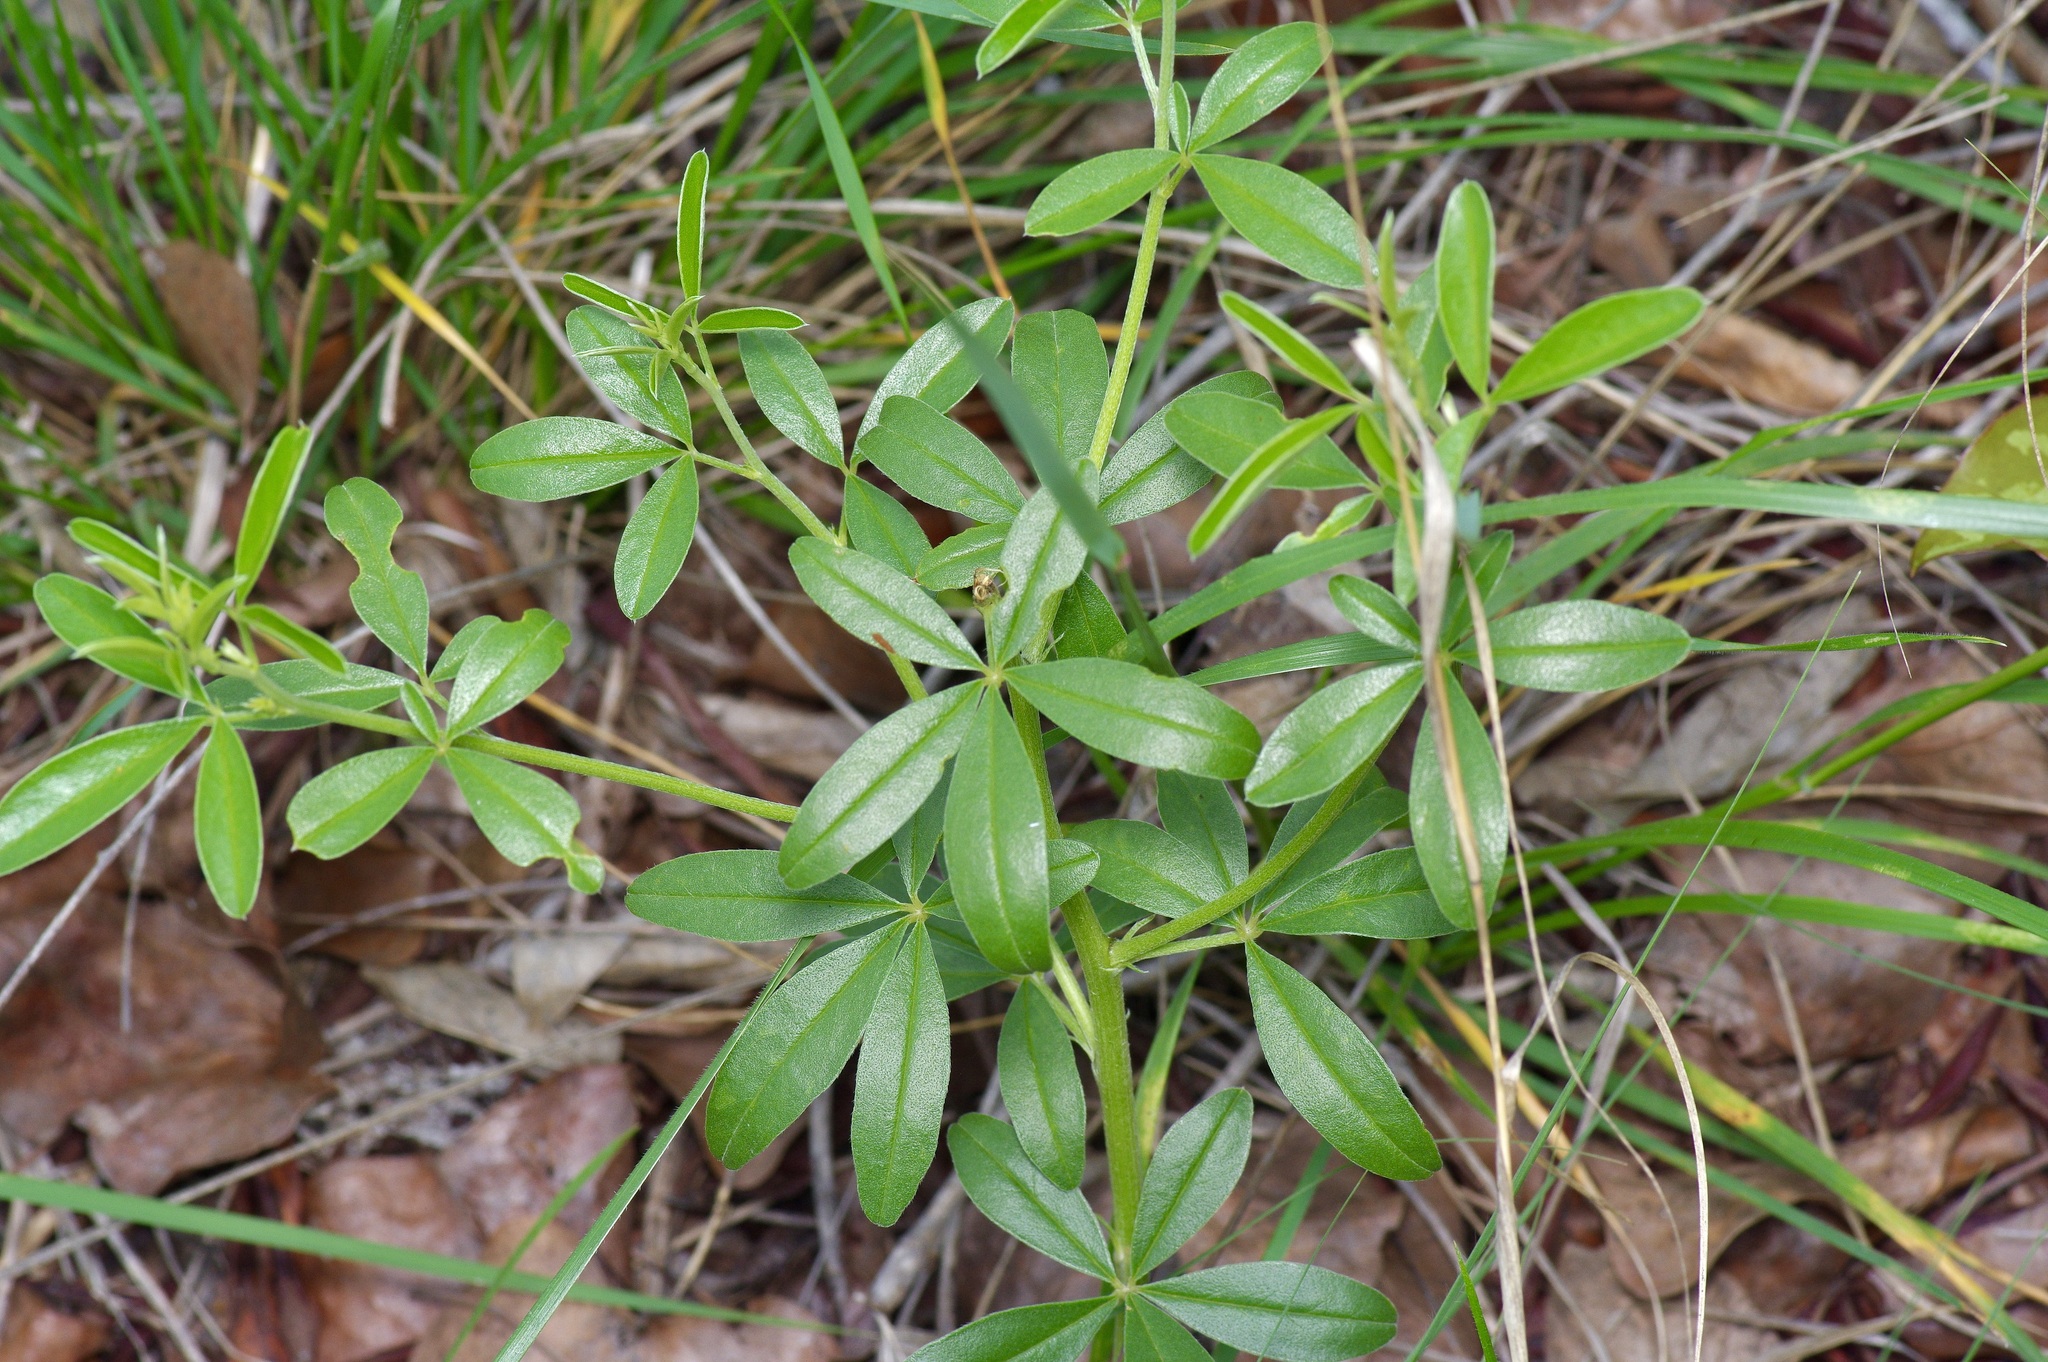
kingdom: Plantae
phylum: Tracheophyta
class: Magnoliopsida
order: Fabales
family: Fabaceae
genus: Pediomelum
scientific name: Pediomelum tenuiflorum
